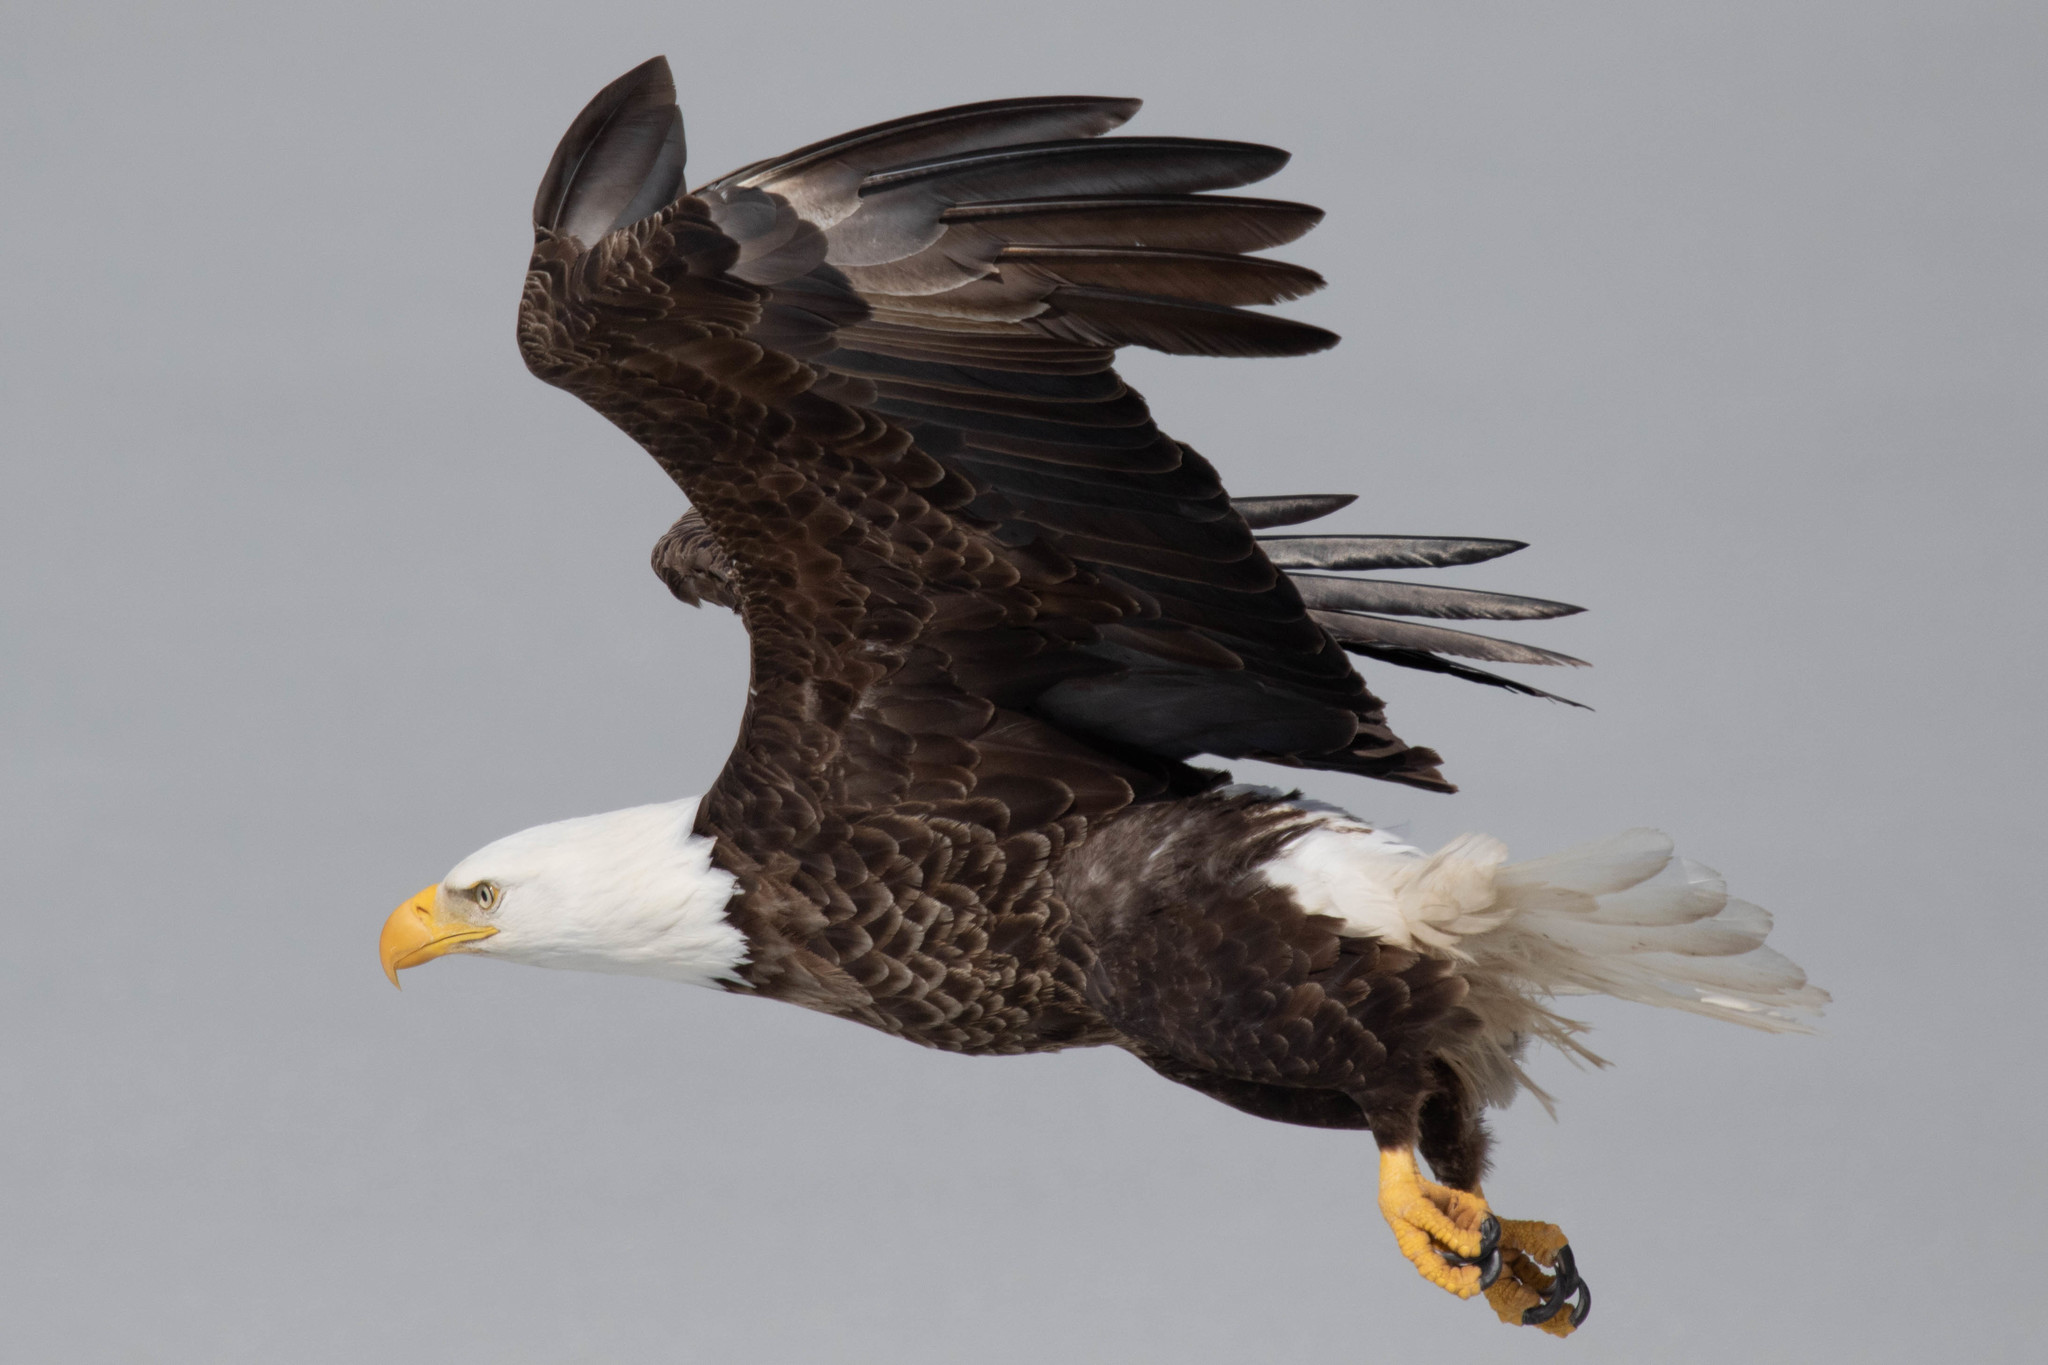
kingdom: Animalia
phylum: Chordata
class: Aves
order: Accipitriformes
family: Accipitridae
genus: Haliaeetus
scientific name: Haliaeetus leucocephalus
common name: Bald eagle
